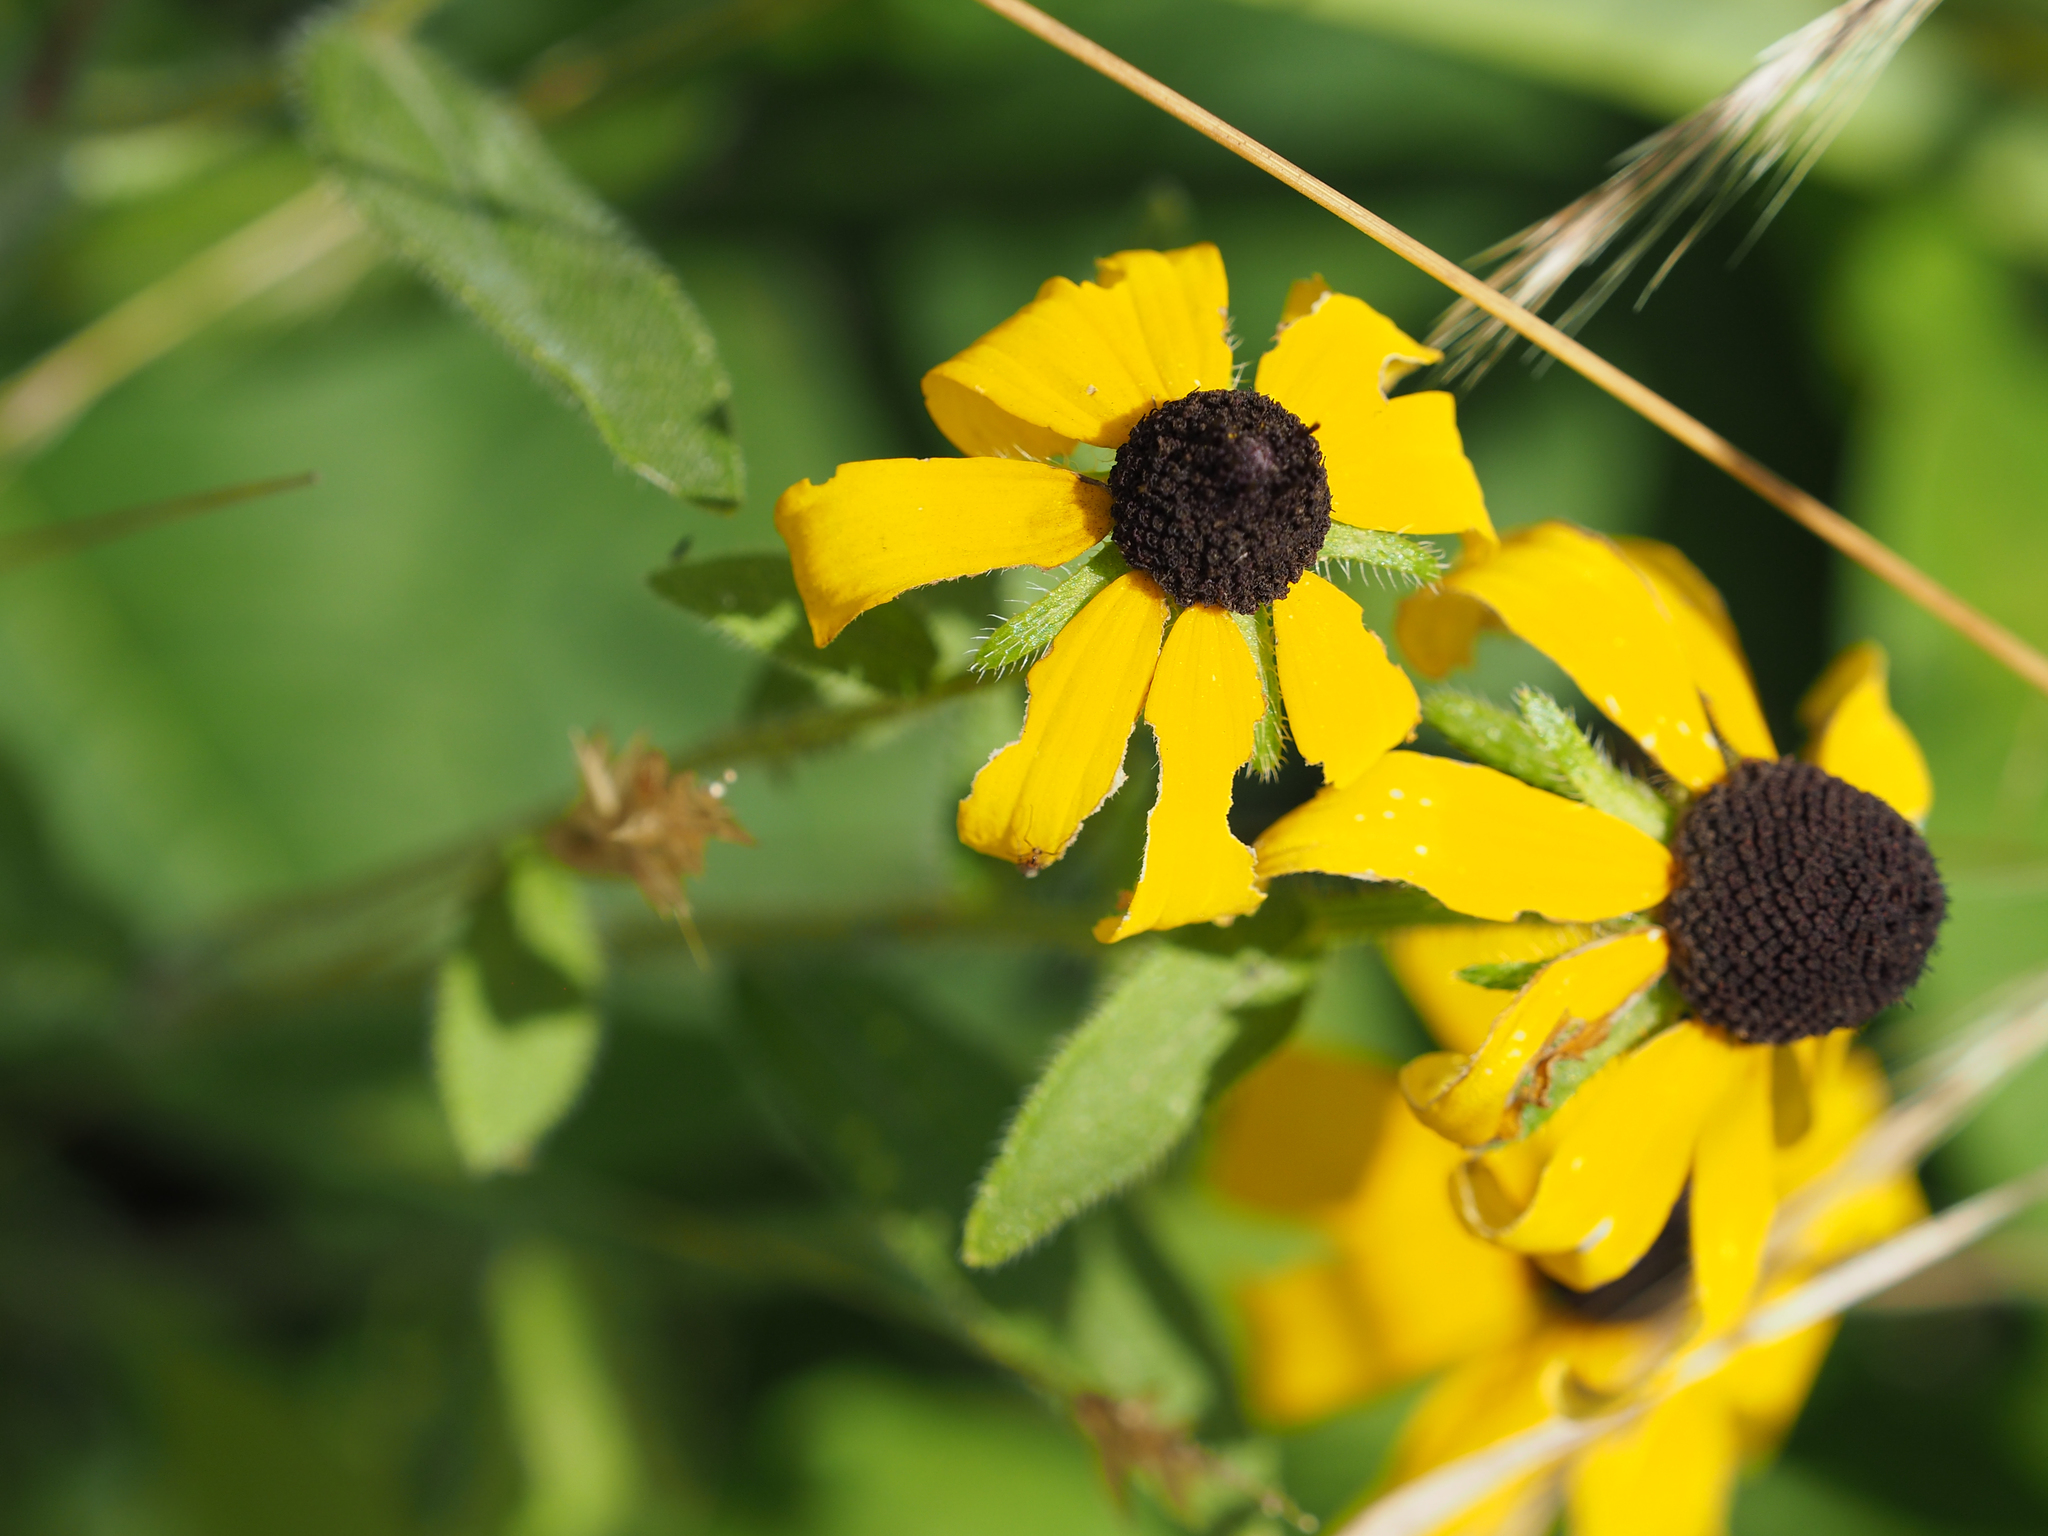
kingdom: Plantae
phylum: Tracheophyta
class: Magnoliopsida
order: Asterales
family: Asteraceae
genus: Rudbeckia
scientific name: Rudbeckia hirta
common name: Black-eyed-susan
